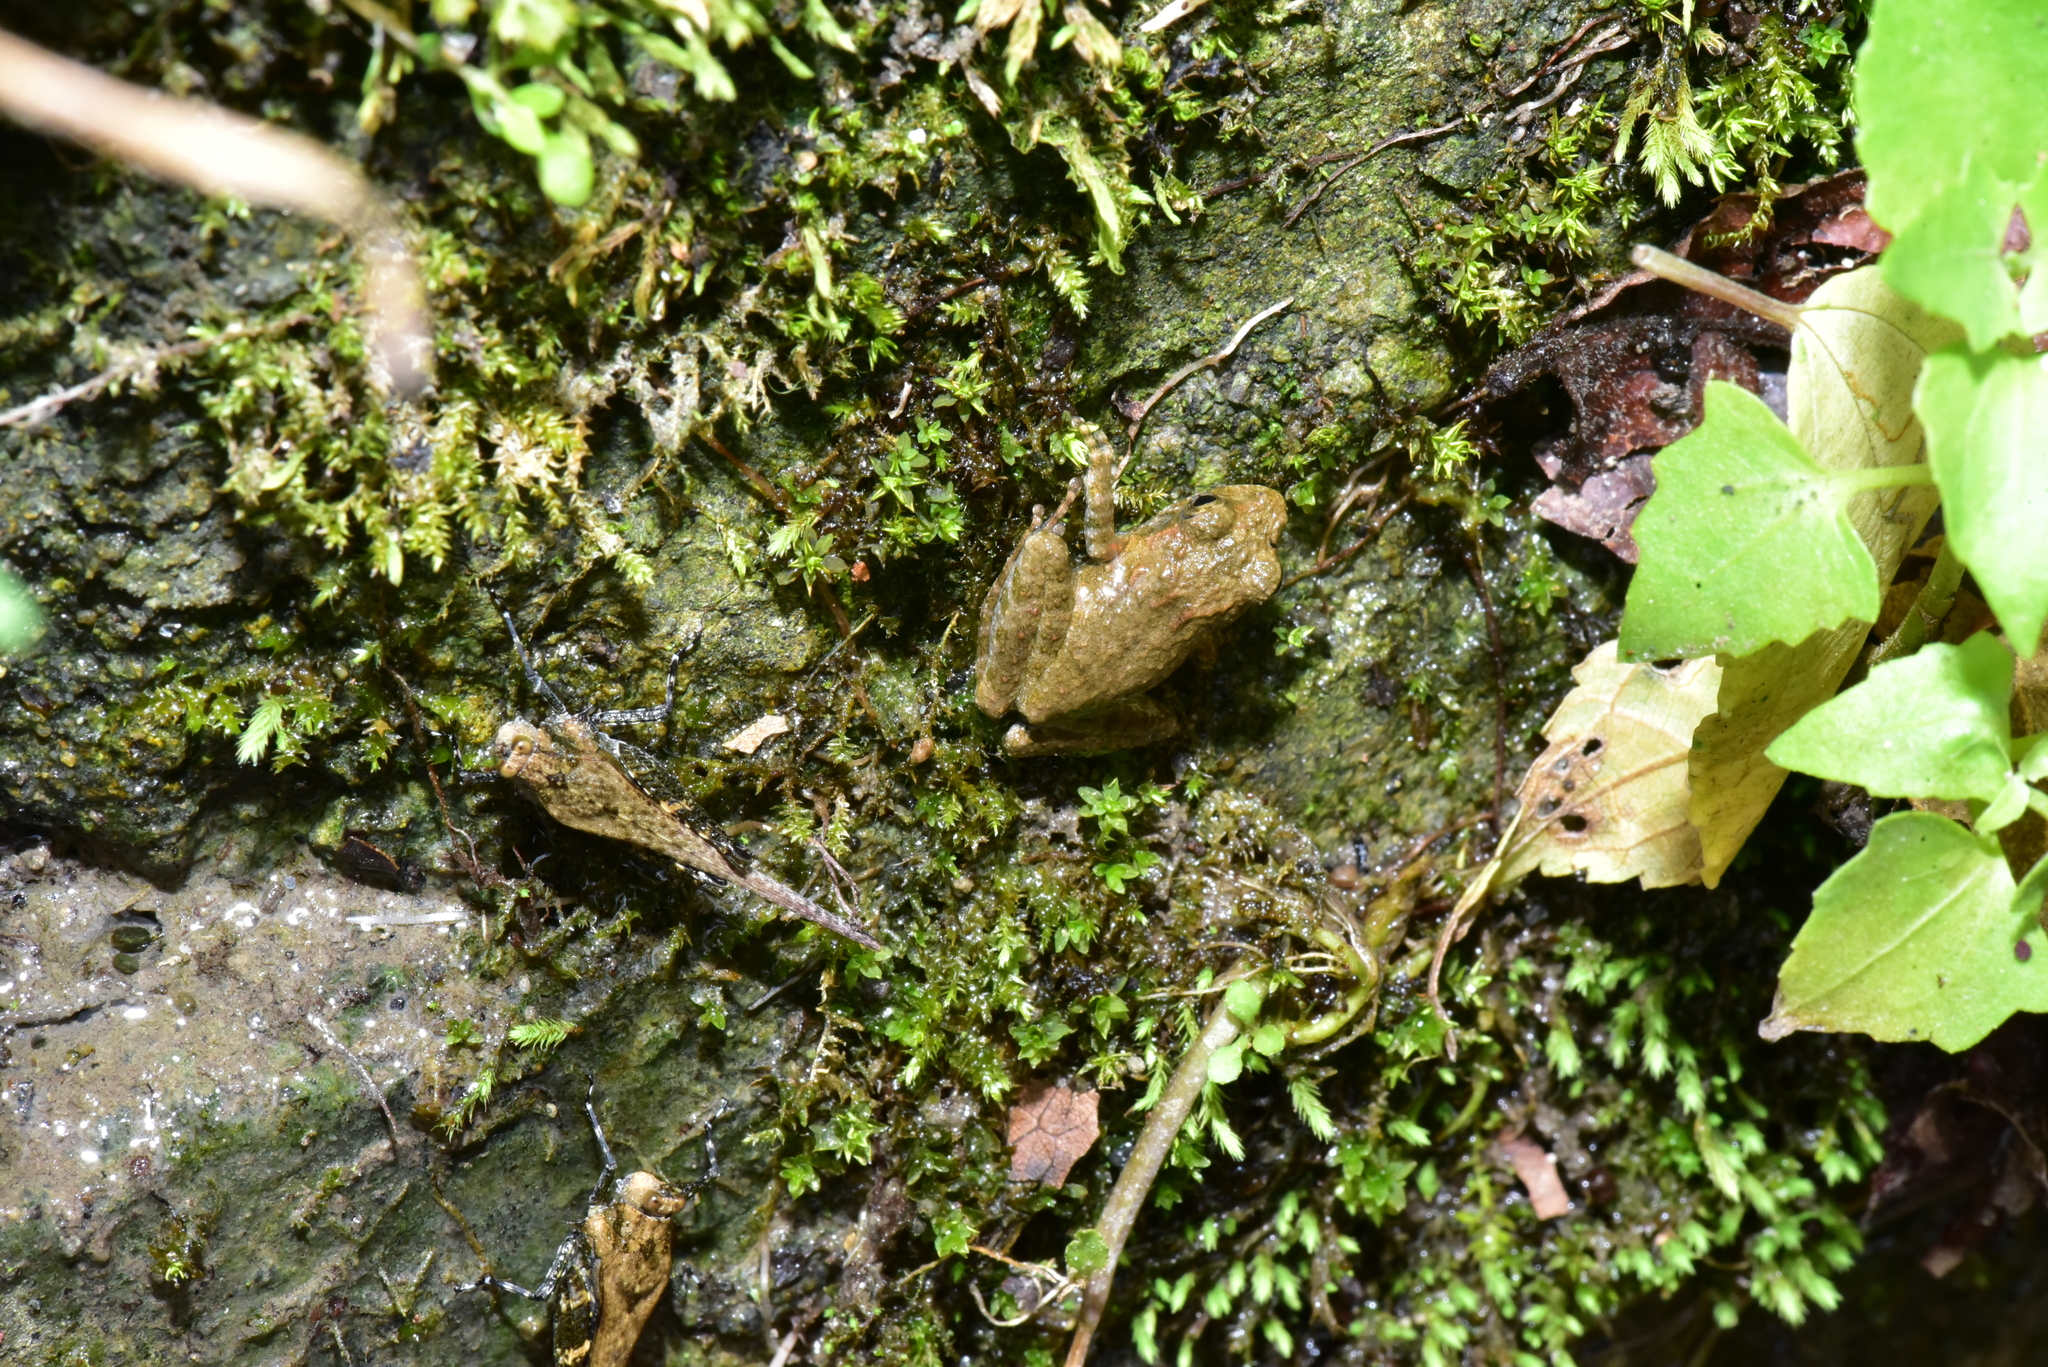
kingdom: Animalia
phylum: Chordata
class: Amphibia
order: Anura
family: Rhacophoridae
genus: Buergeria
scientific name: Buergeria otai
